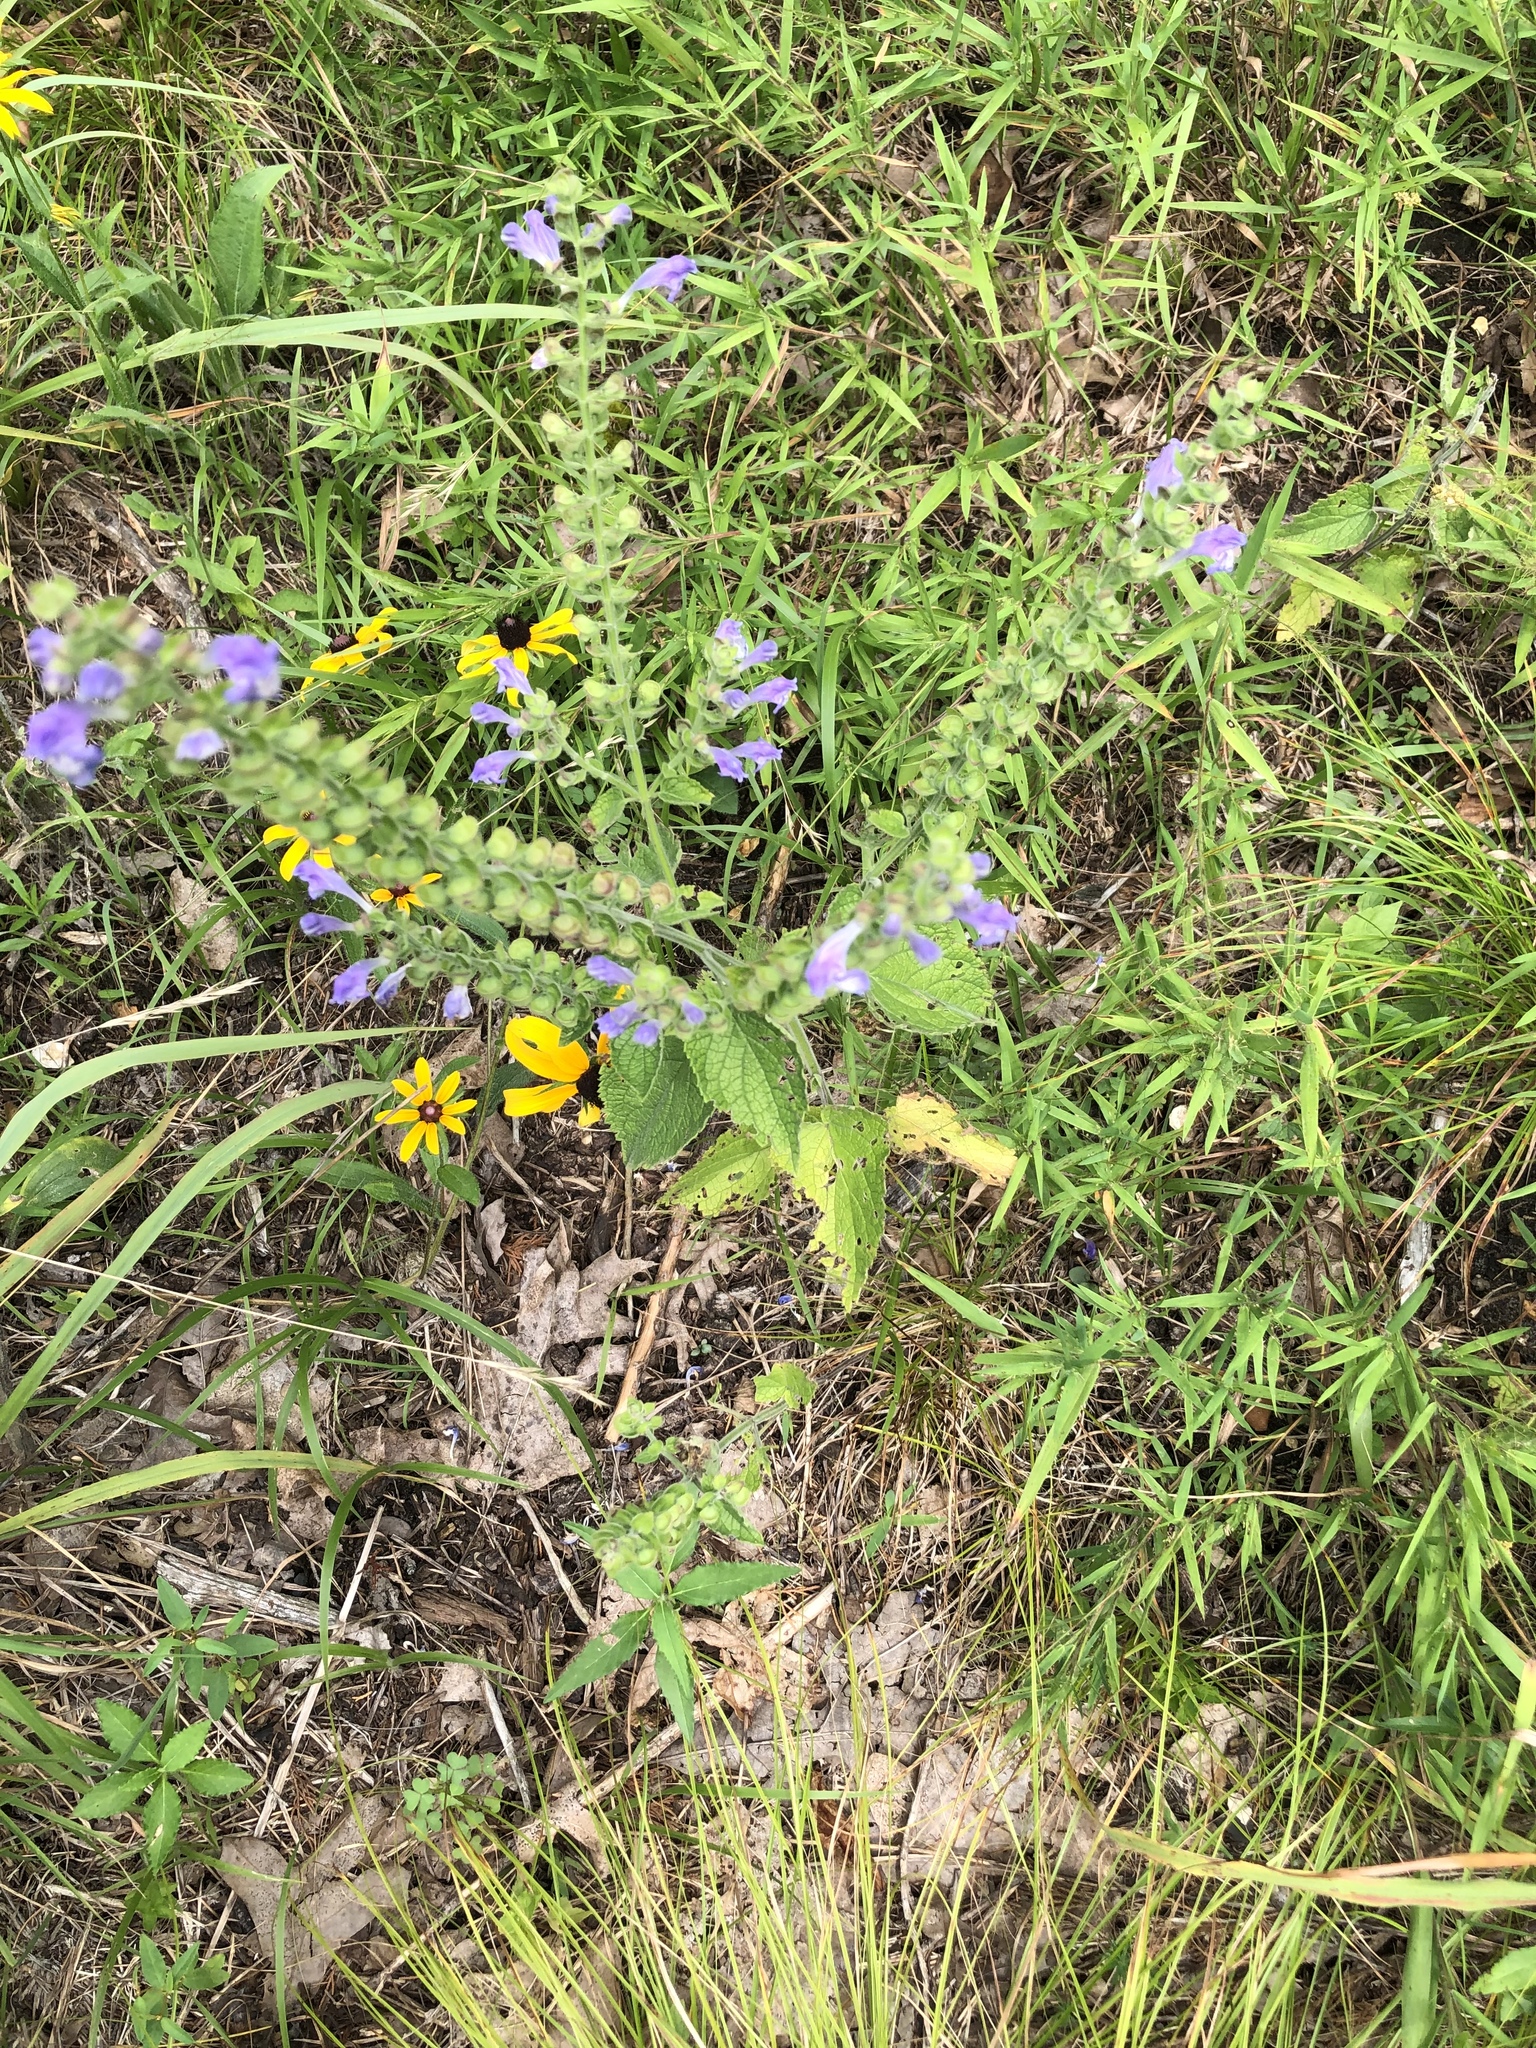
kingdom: Plantae
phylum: Tracheophyta
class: Magnoliopsida
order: Lamiales
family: Lamiaceae
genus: Scutellaria
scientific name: Scutellaria ovata
